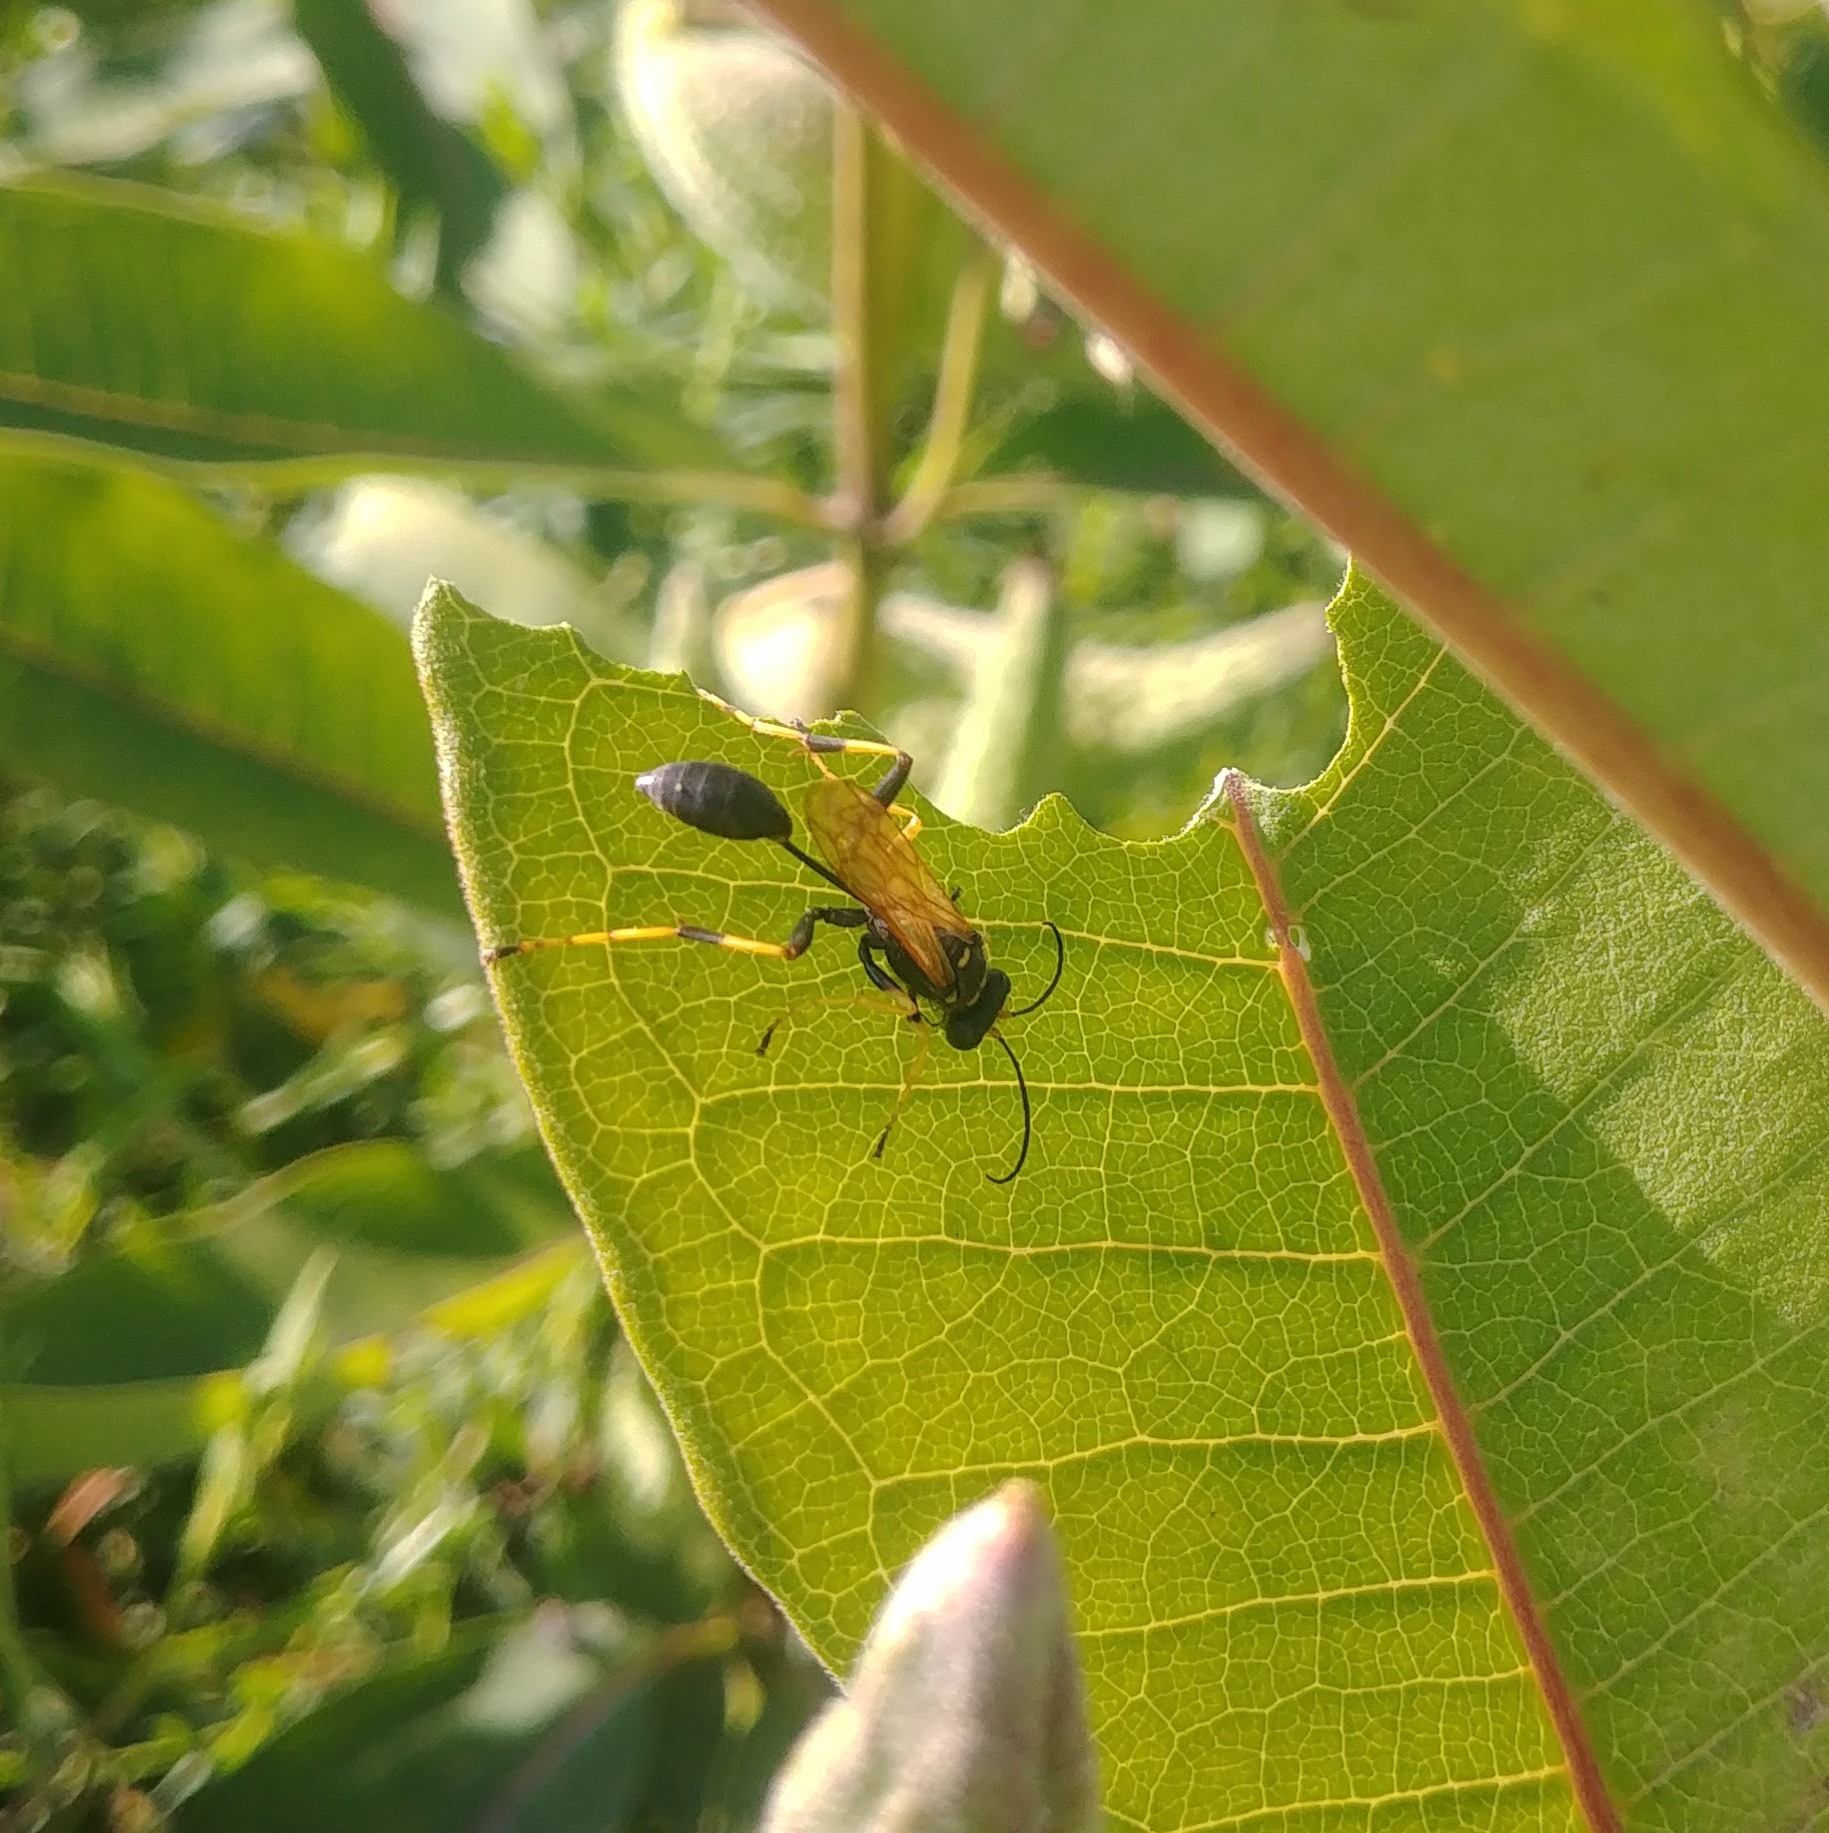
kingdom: Animalia
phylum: Arthropoda
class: Insecta
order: Hymenoptera
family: Sphecidae
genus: Sceliphron
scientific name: Sceliphron caementarium
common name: Mud dauber
